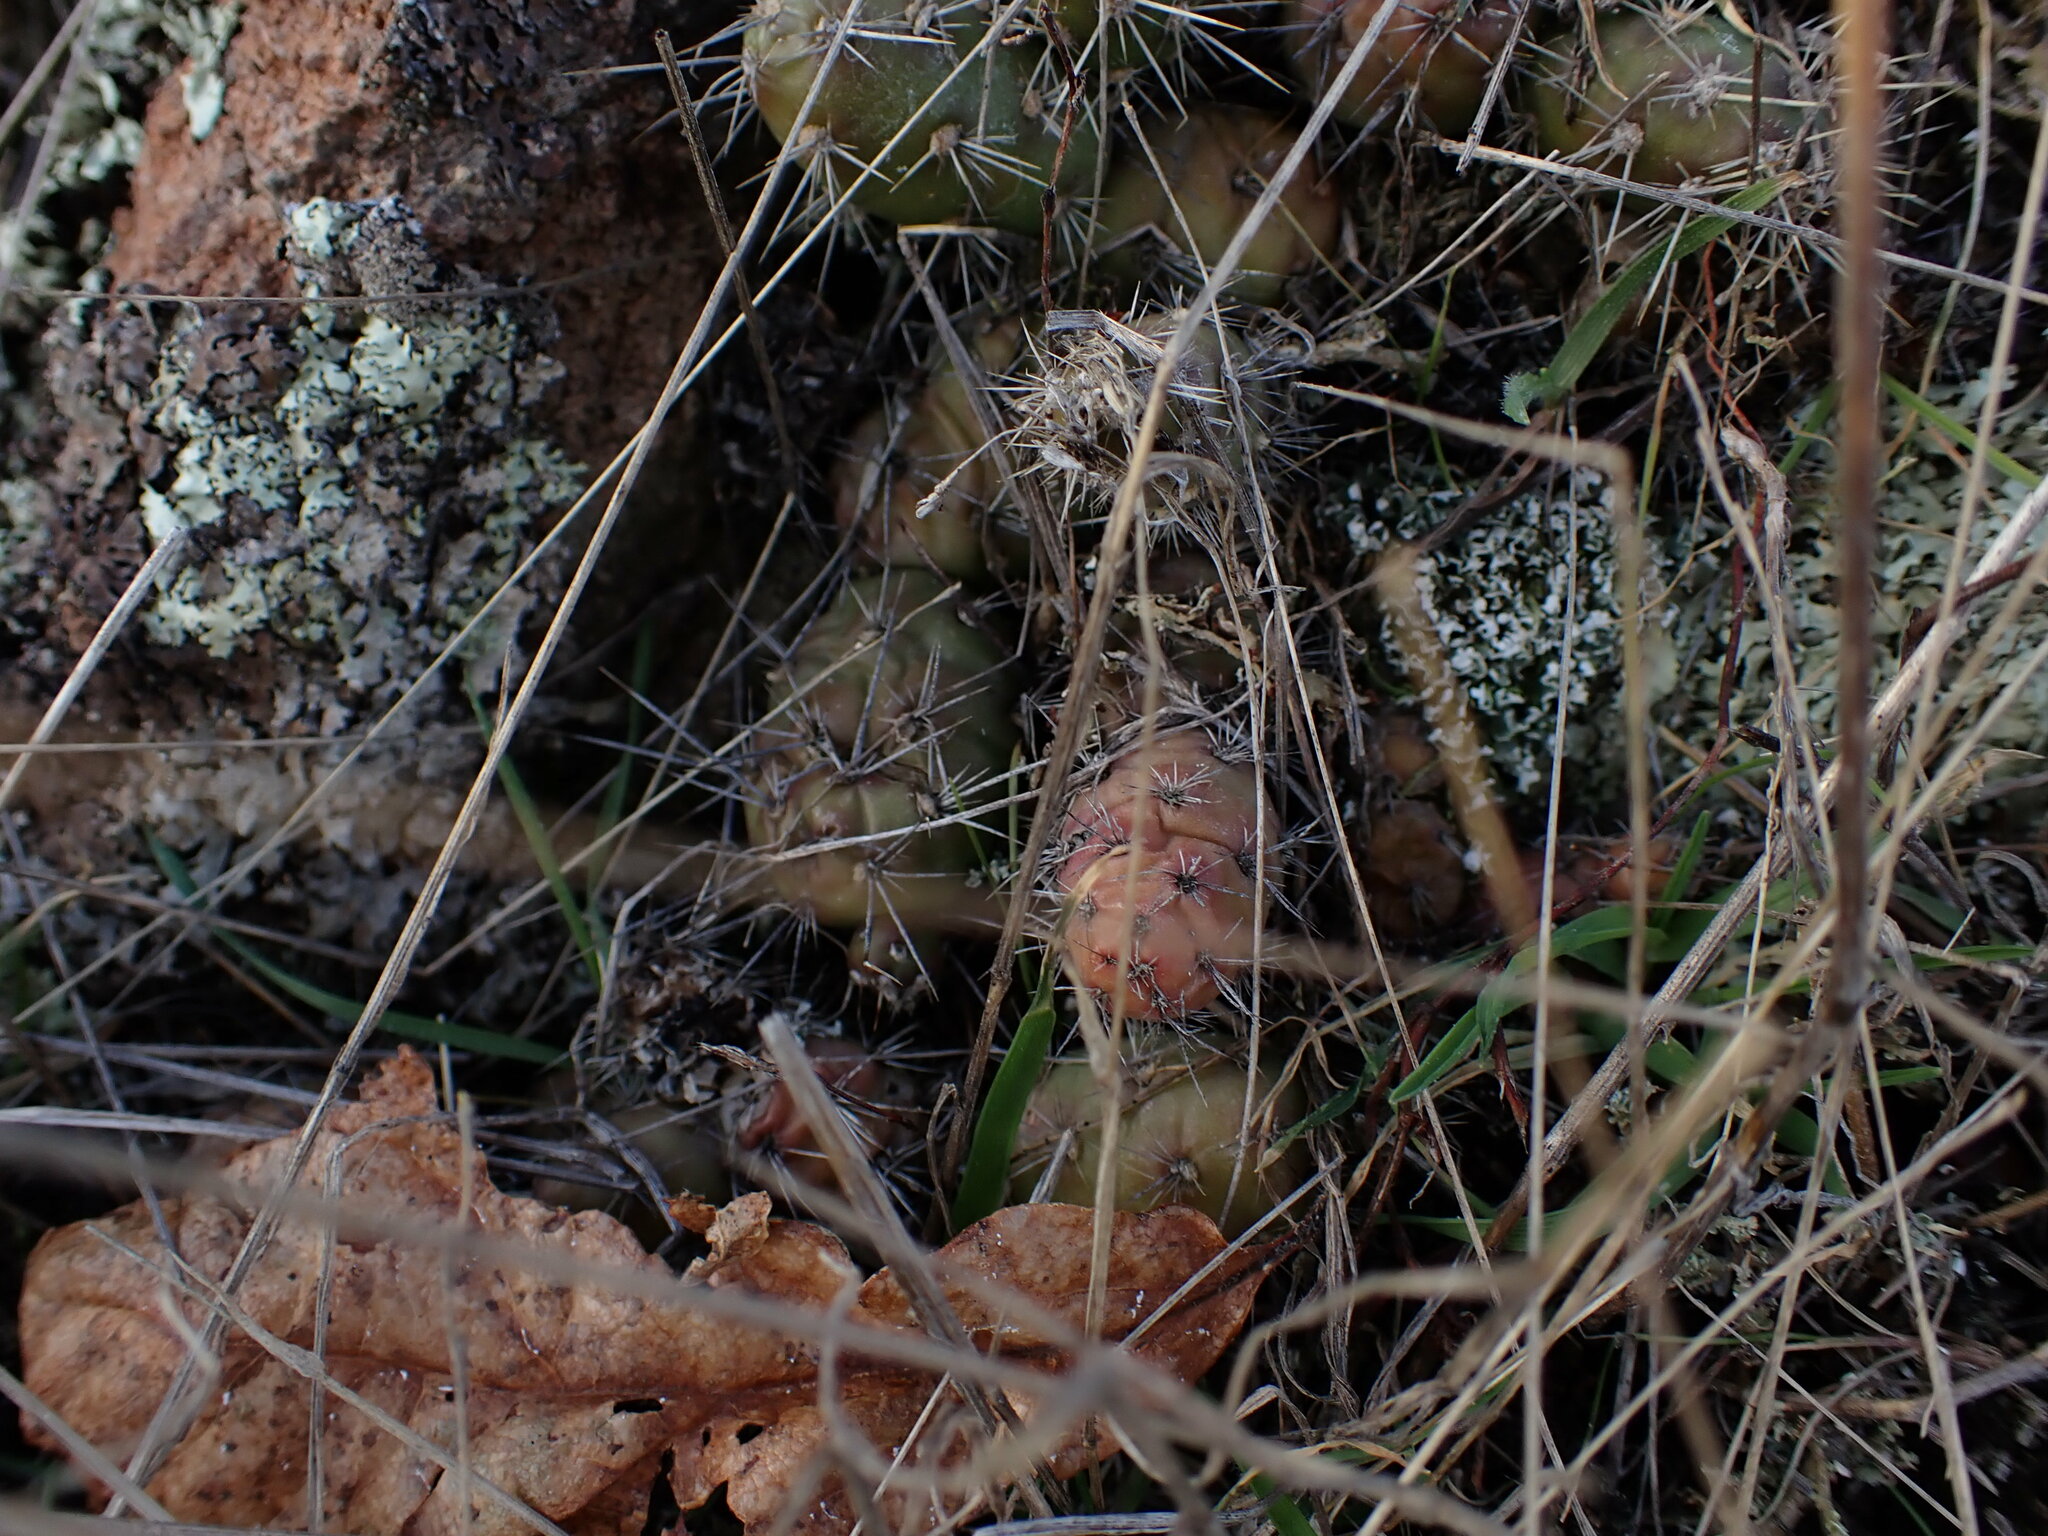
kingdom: Plantae
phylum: Tracheophyta
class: Magnoliopsida
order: Caryophyllales
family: Cactaceae
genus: Opuntia
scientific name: Opuntia fragilis
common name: Brittle cactus
